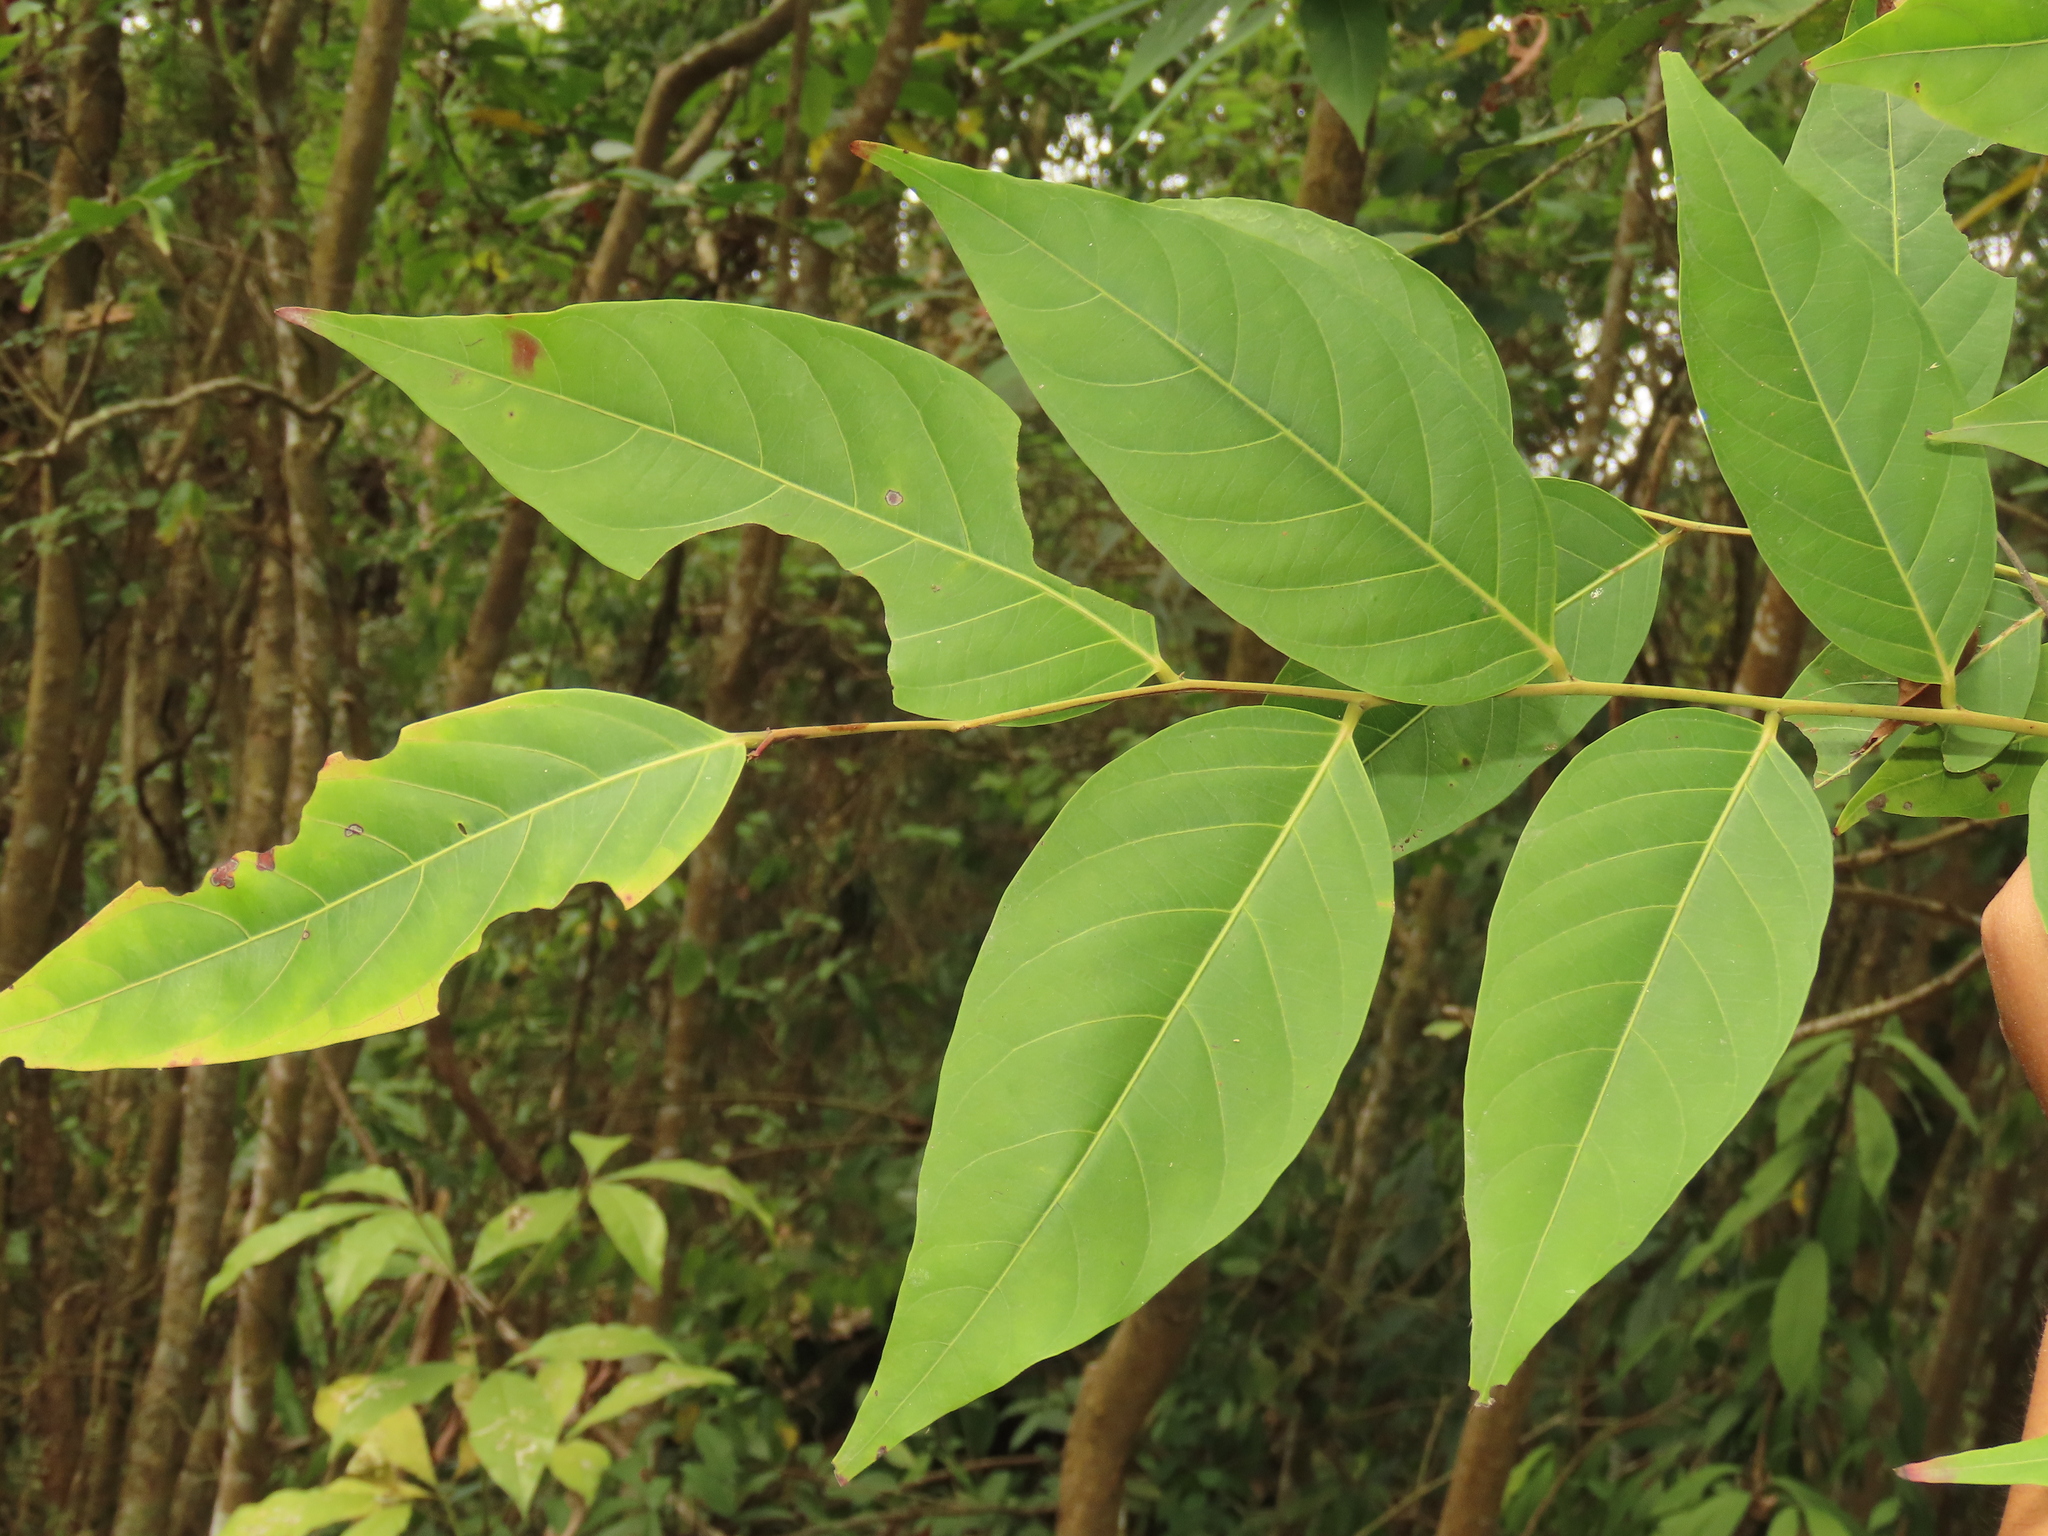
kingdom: Plantae
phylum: Tracheophyta
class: Magnoliopsida
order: Malpighiales
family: Phyllanthaceae
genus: Glochidion
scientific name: Glochidion lanceolatum
